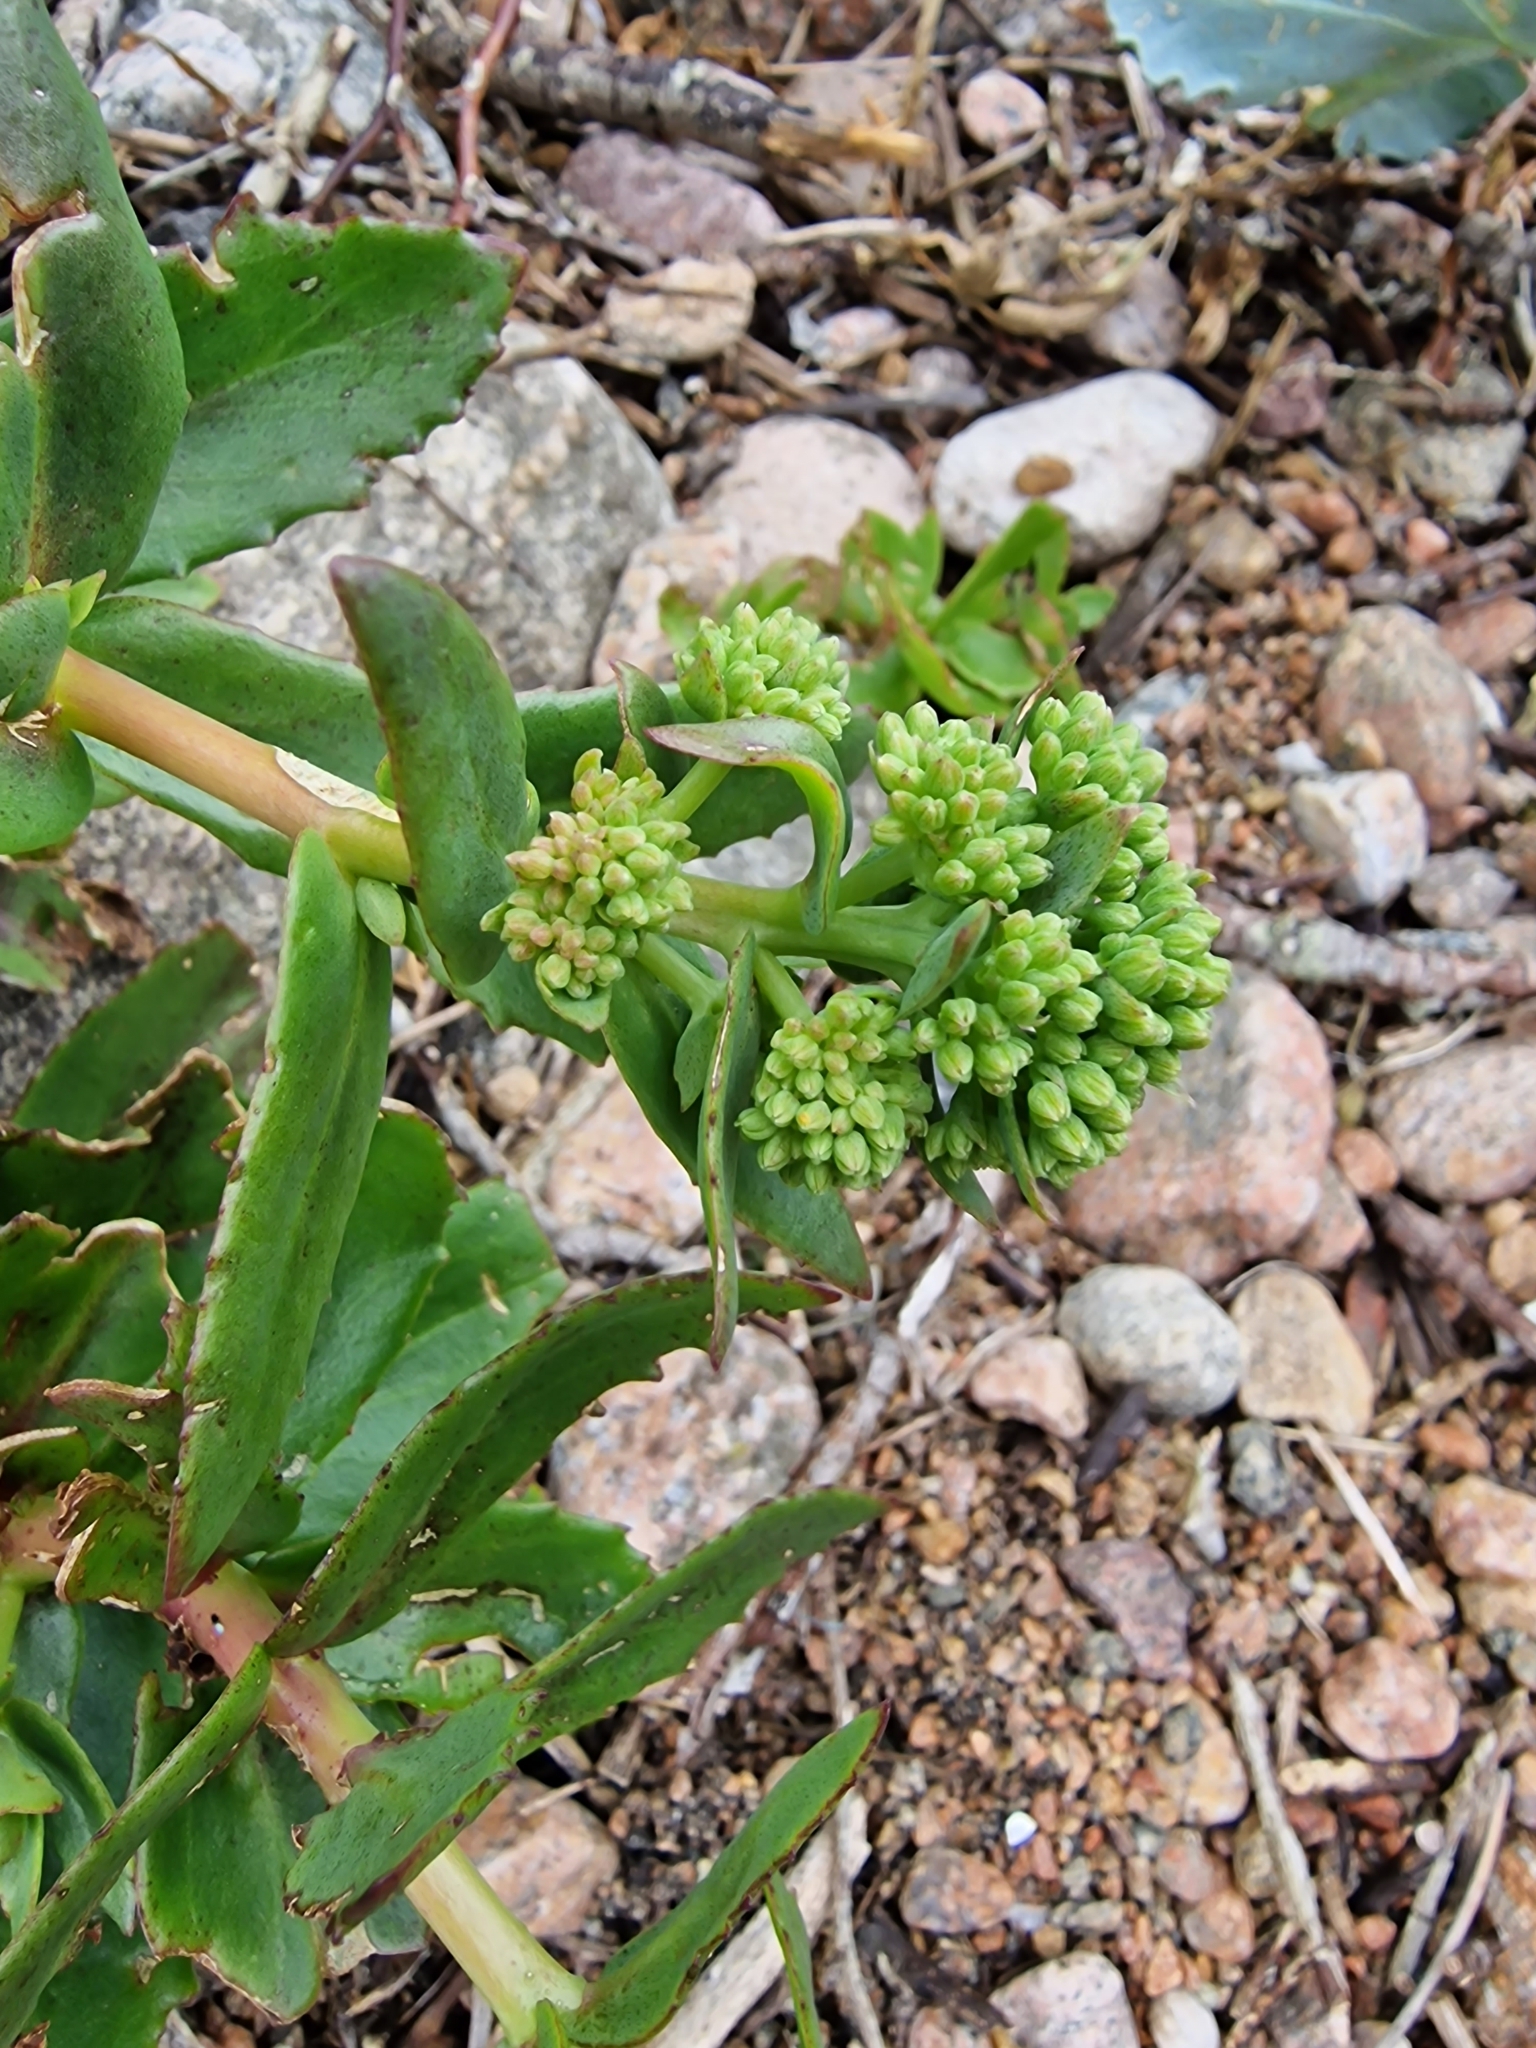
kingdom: Plantae
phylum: Tracheophyta
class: Magnoliopsida
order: Saxifragales
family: Crassulaceae
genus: Hylotelephium
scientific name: Hylotelephium maximum
